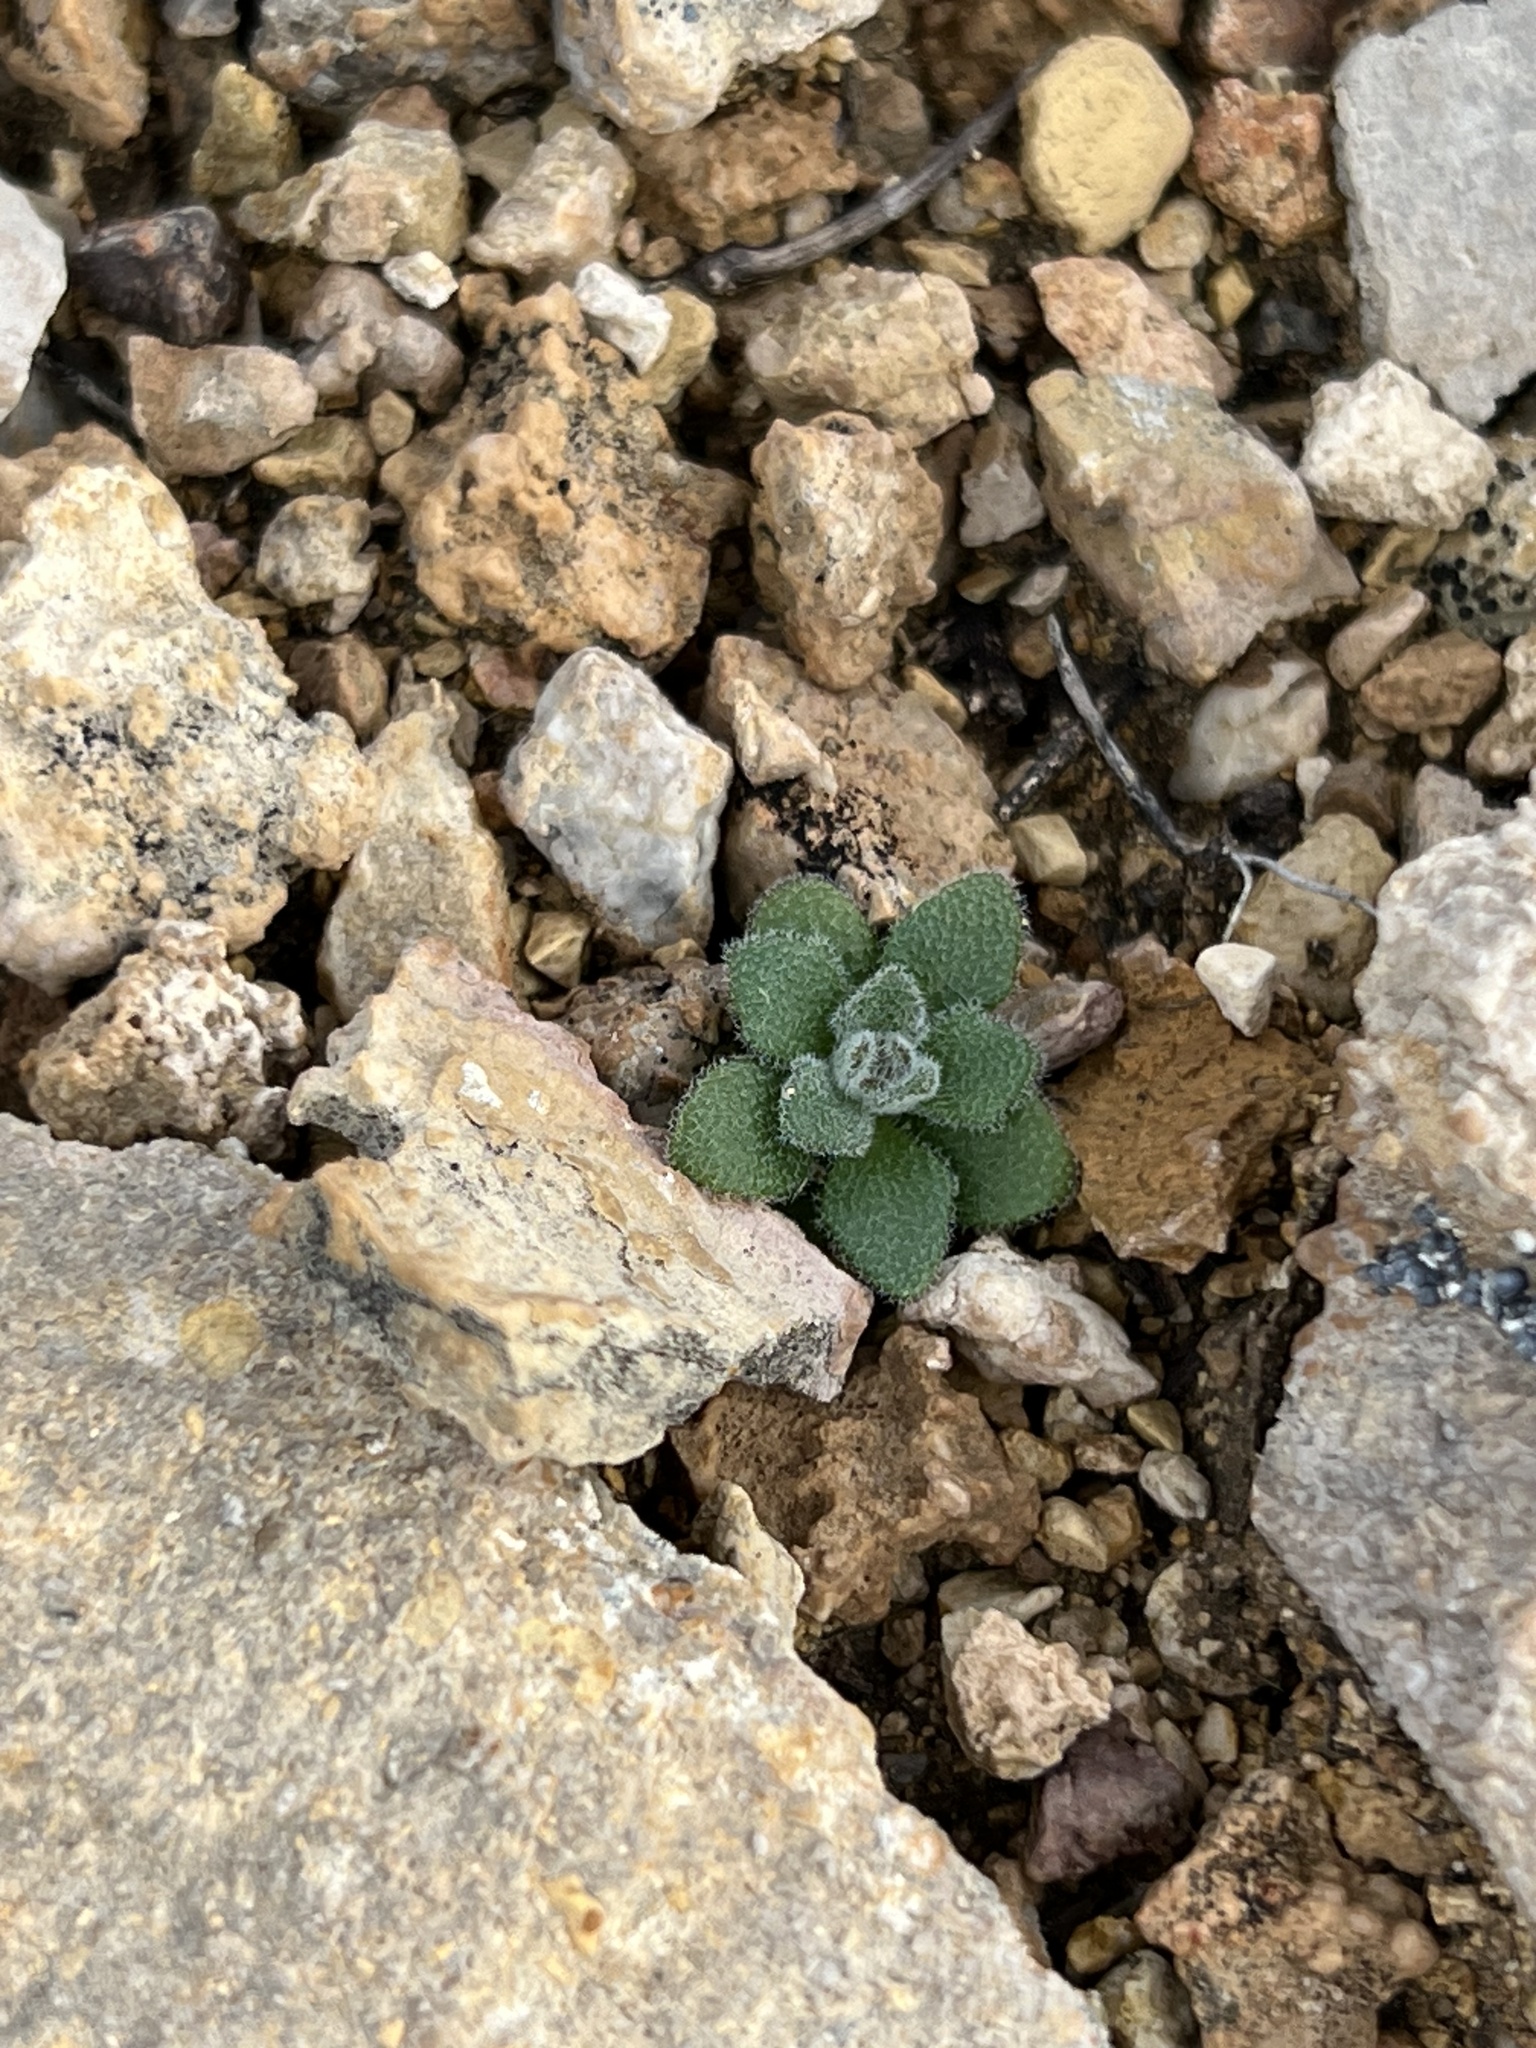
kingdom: Plantae
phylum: Tracheophyta
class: Magnoliopsida
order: Brassicales
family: Brassicaceae
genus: Tomostima
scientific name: Tomostima cuneifolia
